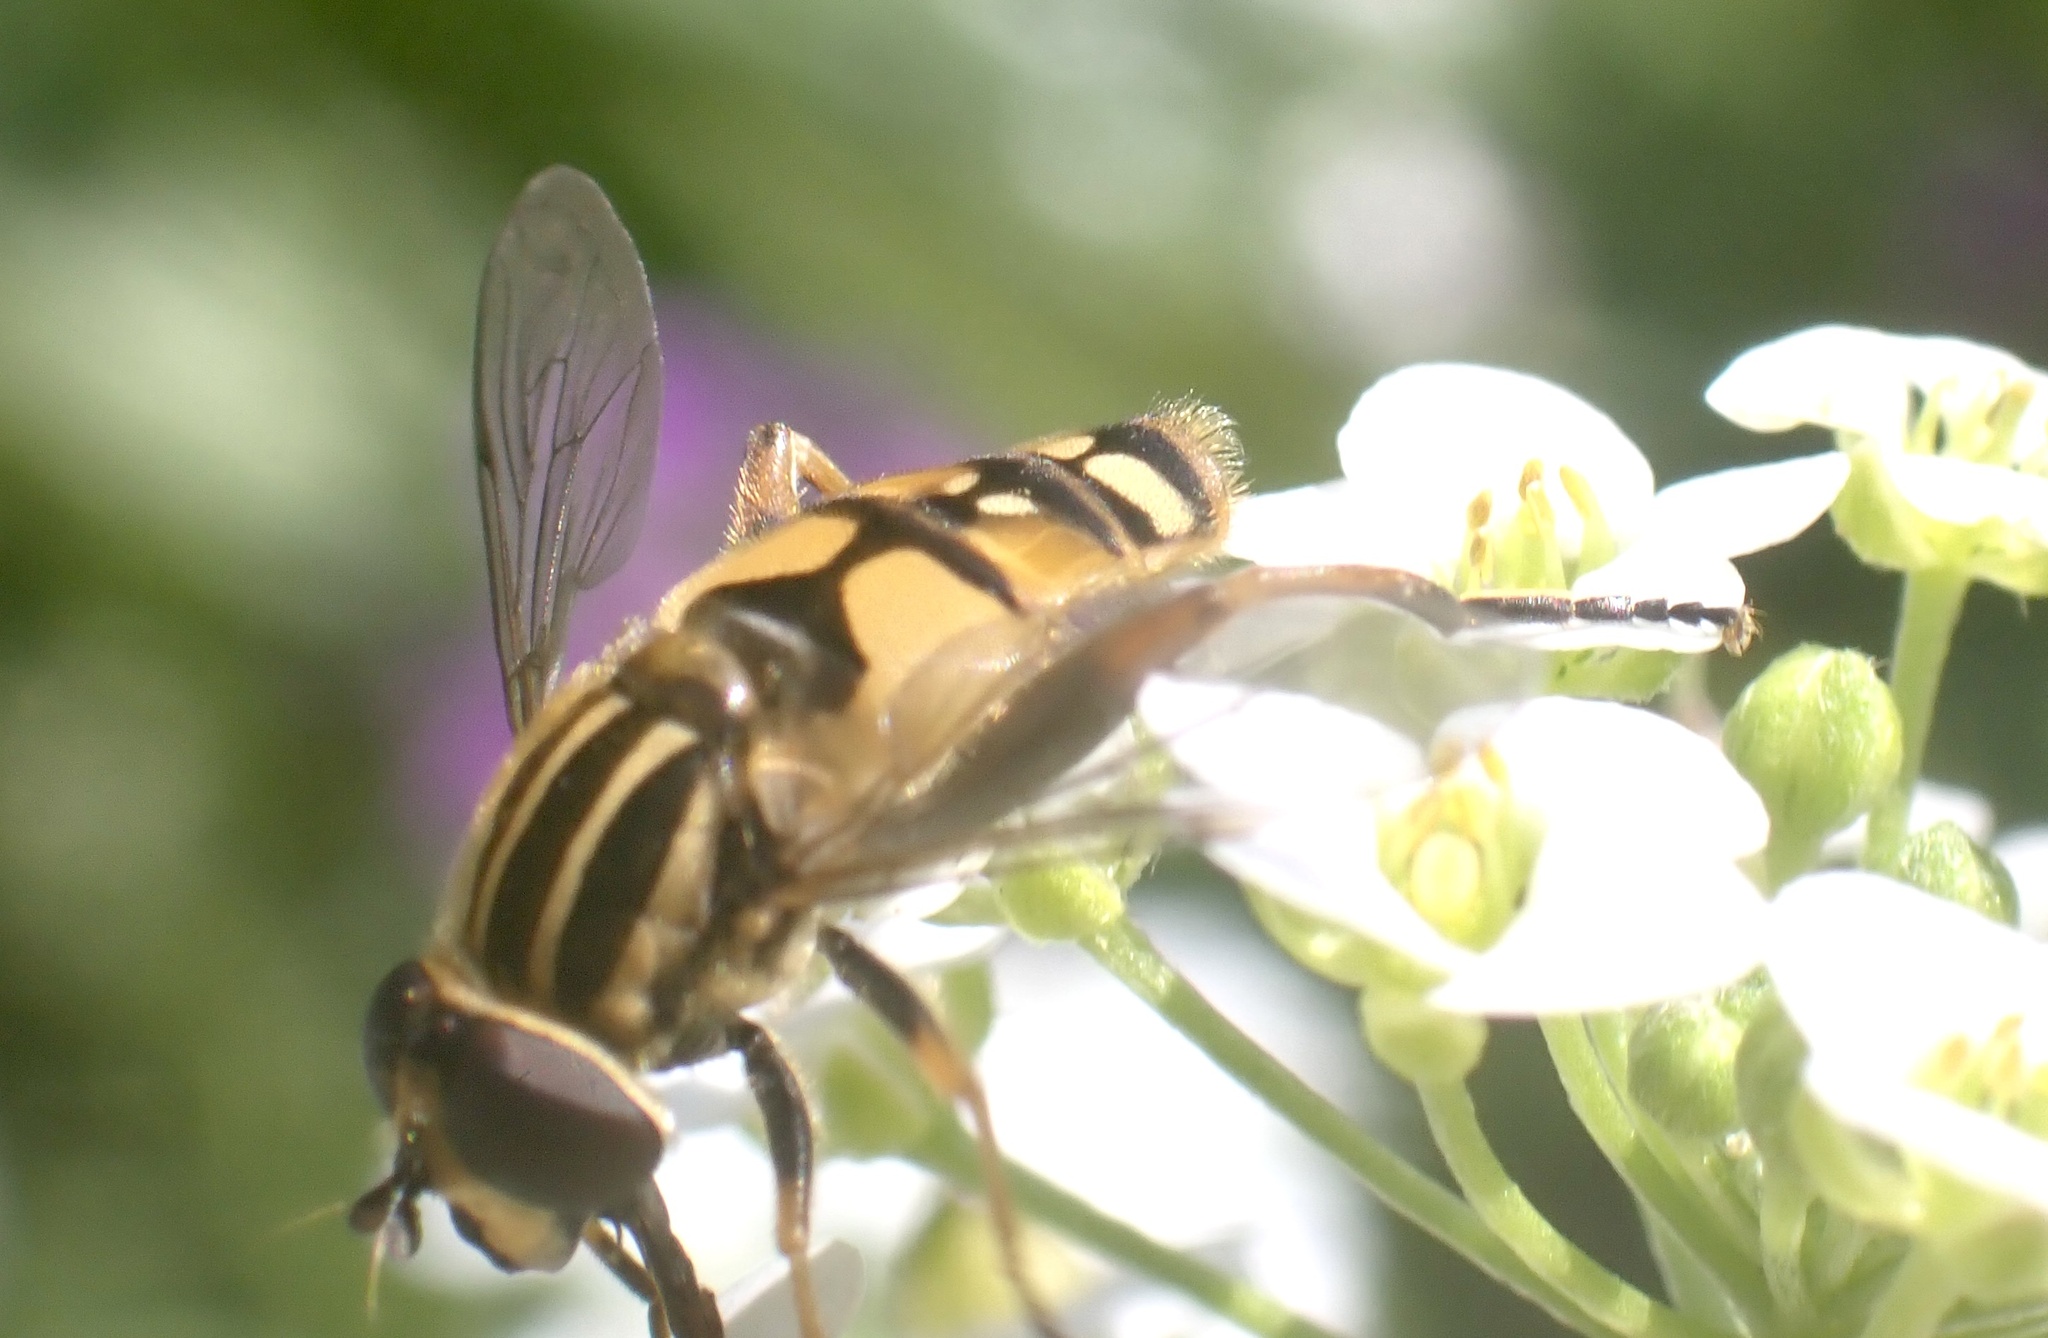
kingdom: Animalia
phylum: Arthropoda
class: Insecta
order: Diptera
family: Syrphidae
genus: Helophilus
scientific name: Helophilus pendulus
